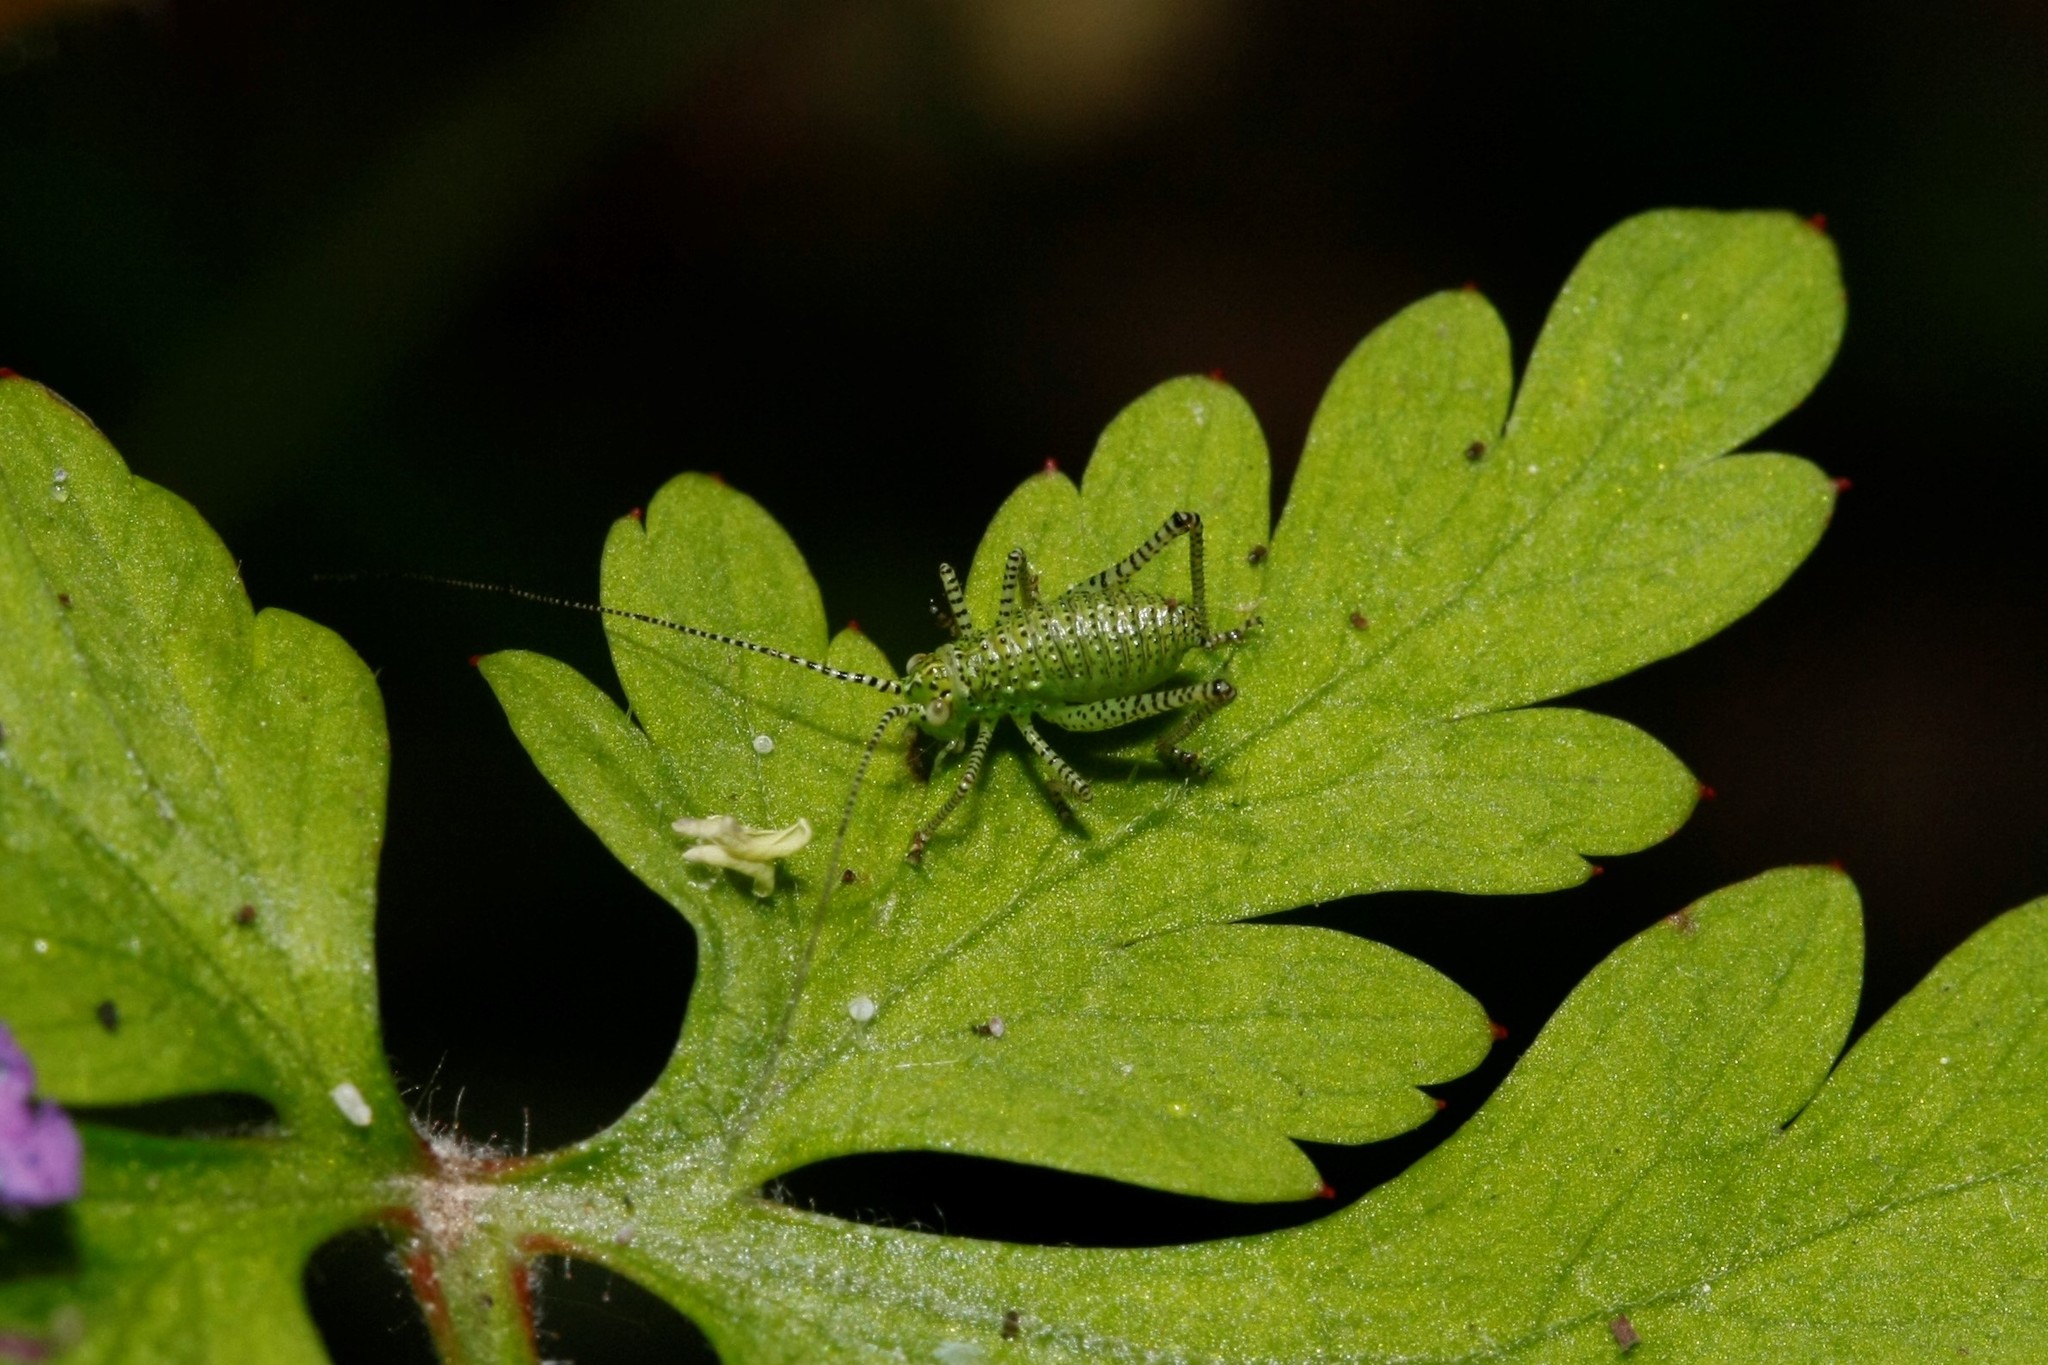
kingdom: Animalia
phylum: Arthropoda
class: Insecta
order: Orthoptera
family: Tettigoniidae
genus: Leptophyes
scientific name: Leptophyes punctatissima
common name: Speckled bush-cricket
